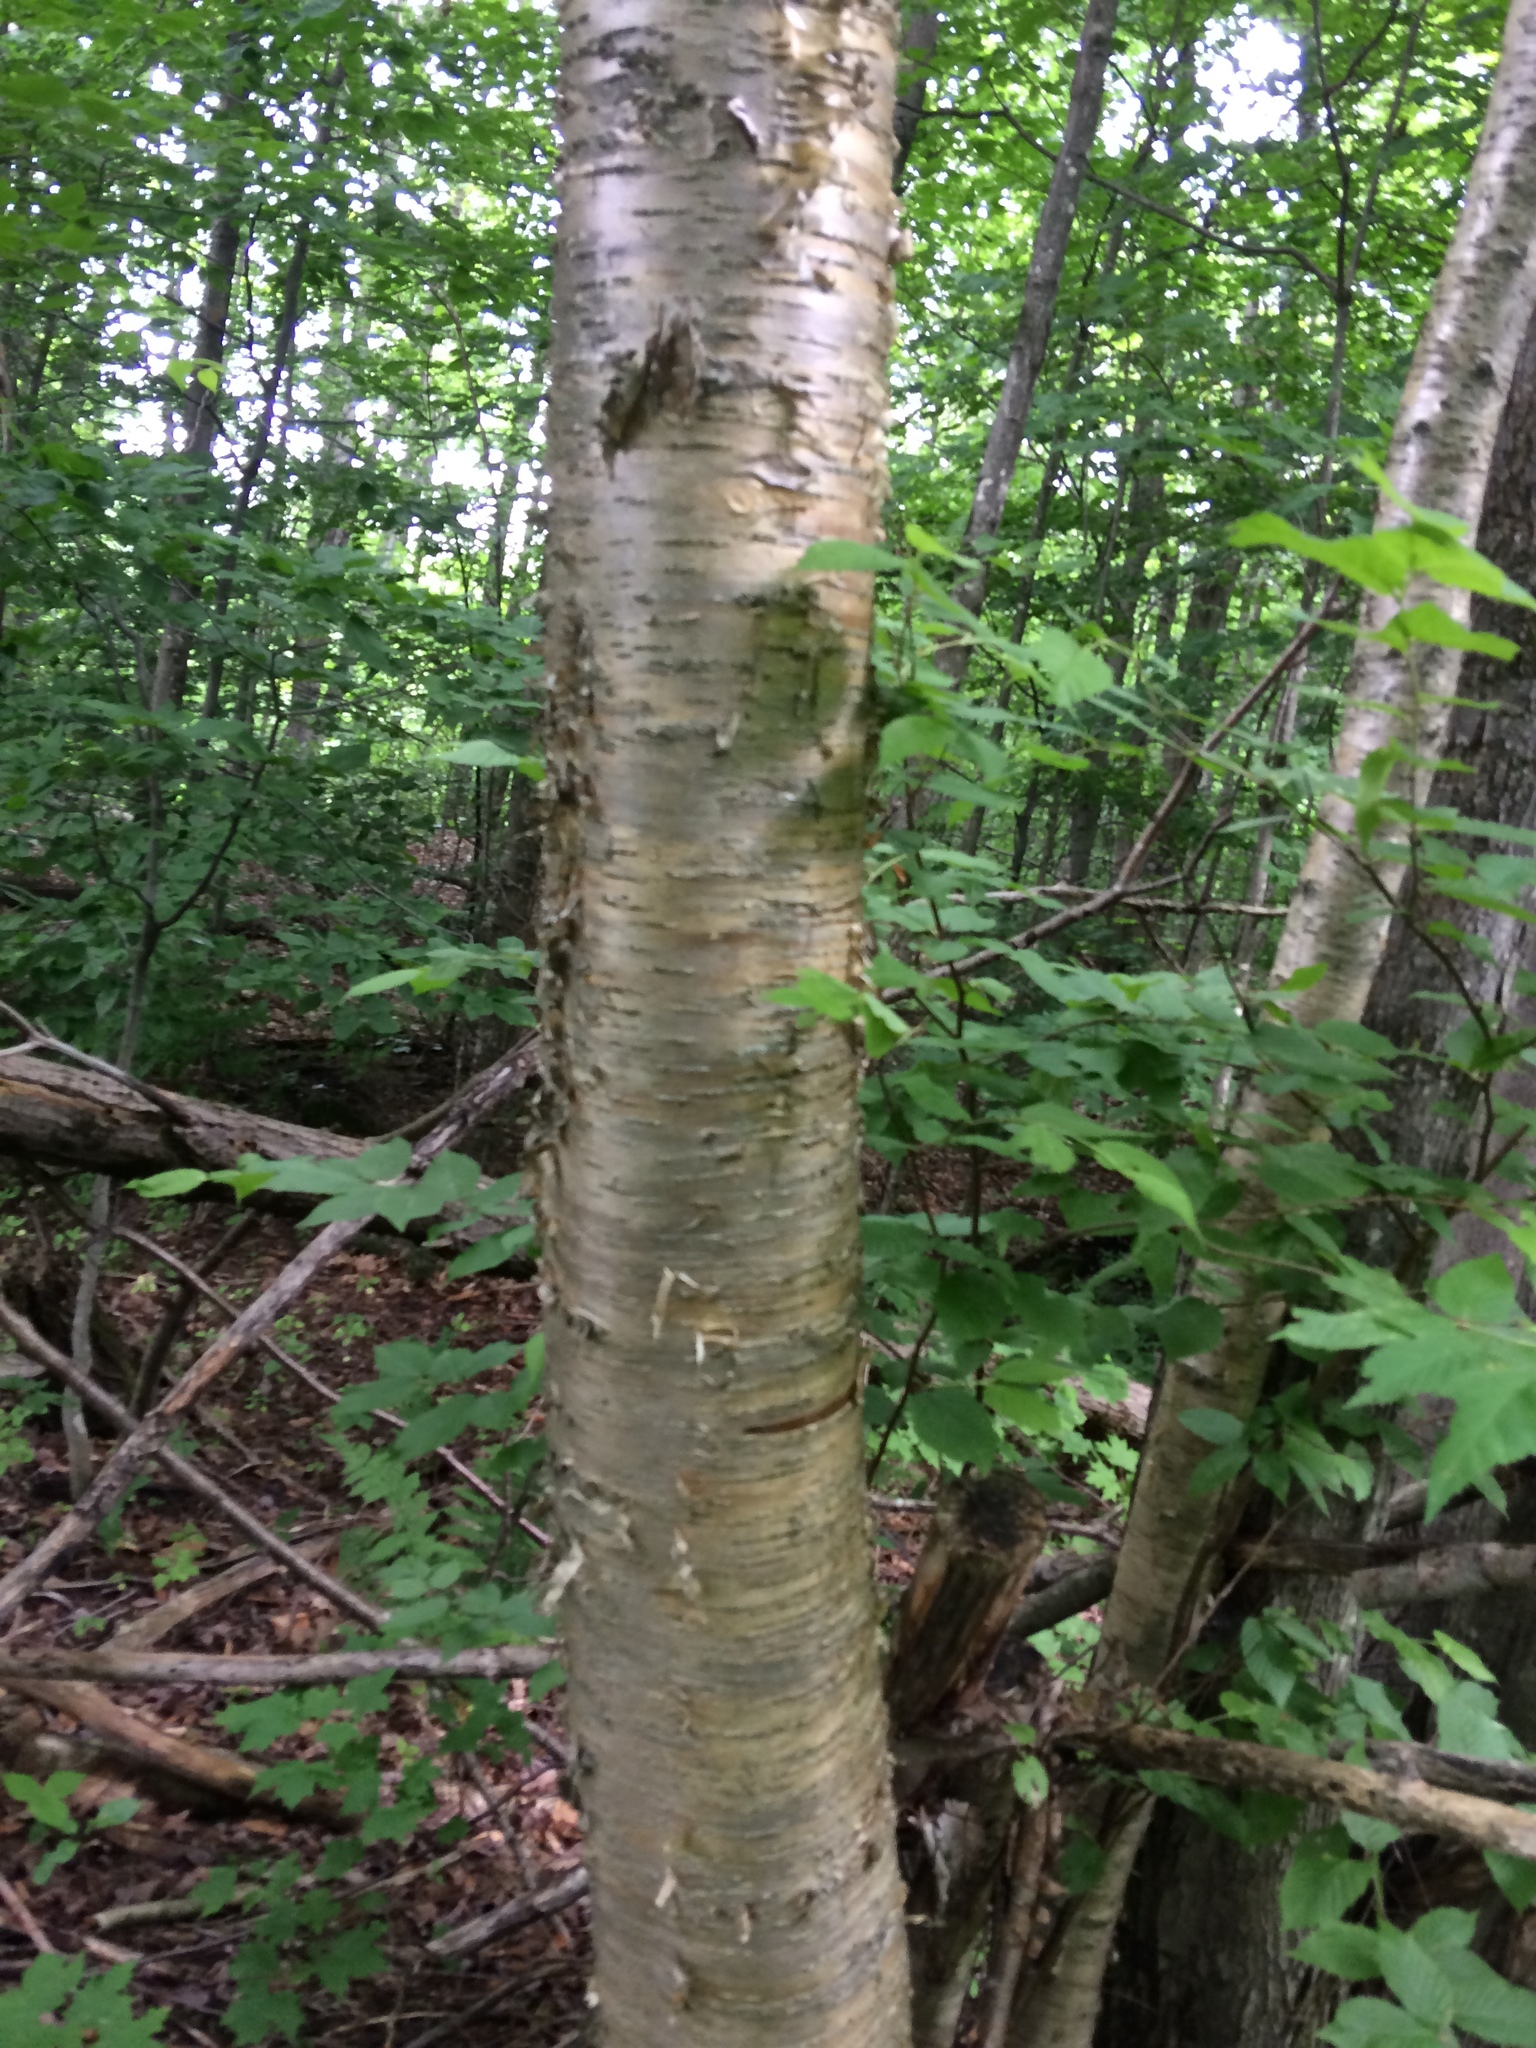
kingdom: Plantae
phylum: Tracheophyta
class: Magnoliopsida
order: Fagales
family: Betulaceae
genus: Betula
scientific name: Betula alleghaniensis
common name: Yellow birch
